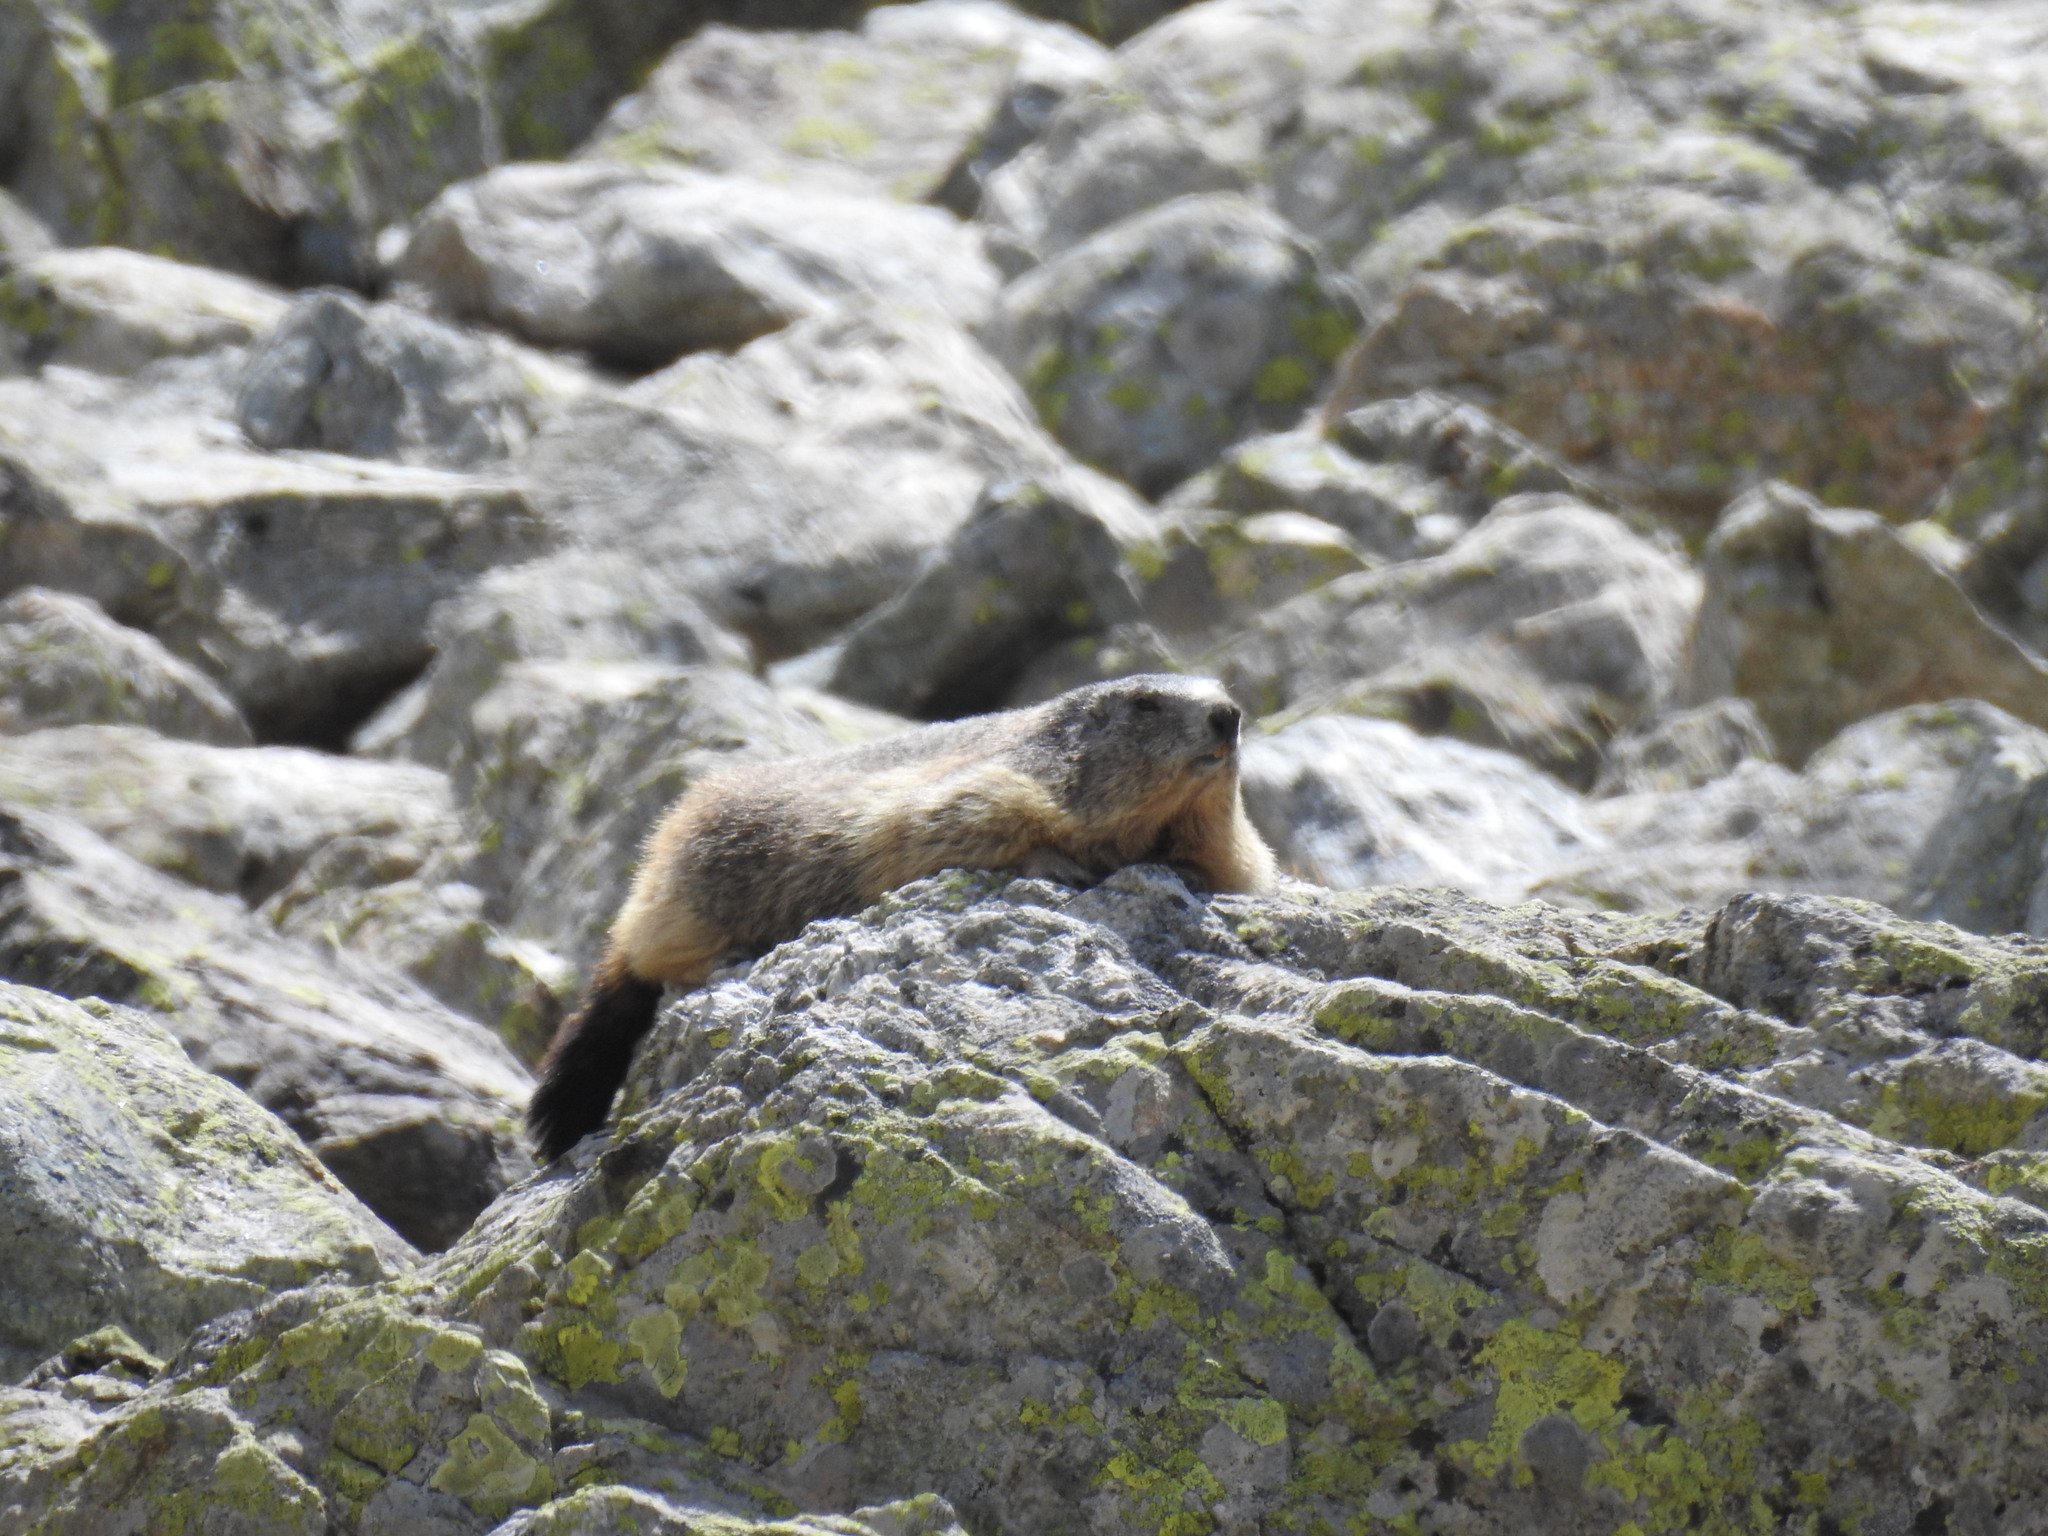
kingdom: Animalia
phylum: Chordata
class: Mammalia
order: Rodentia
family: Sciuridae
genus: Marmota
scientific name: Marmota marmota
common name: Alpine marmot
